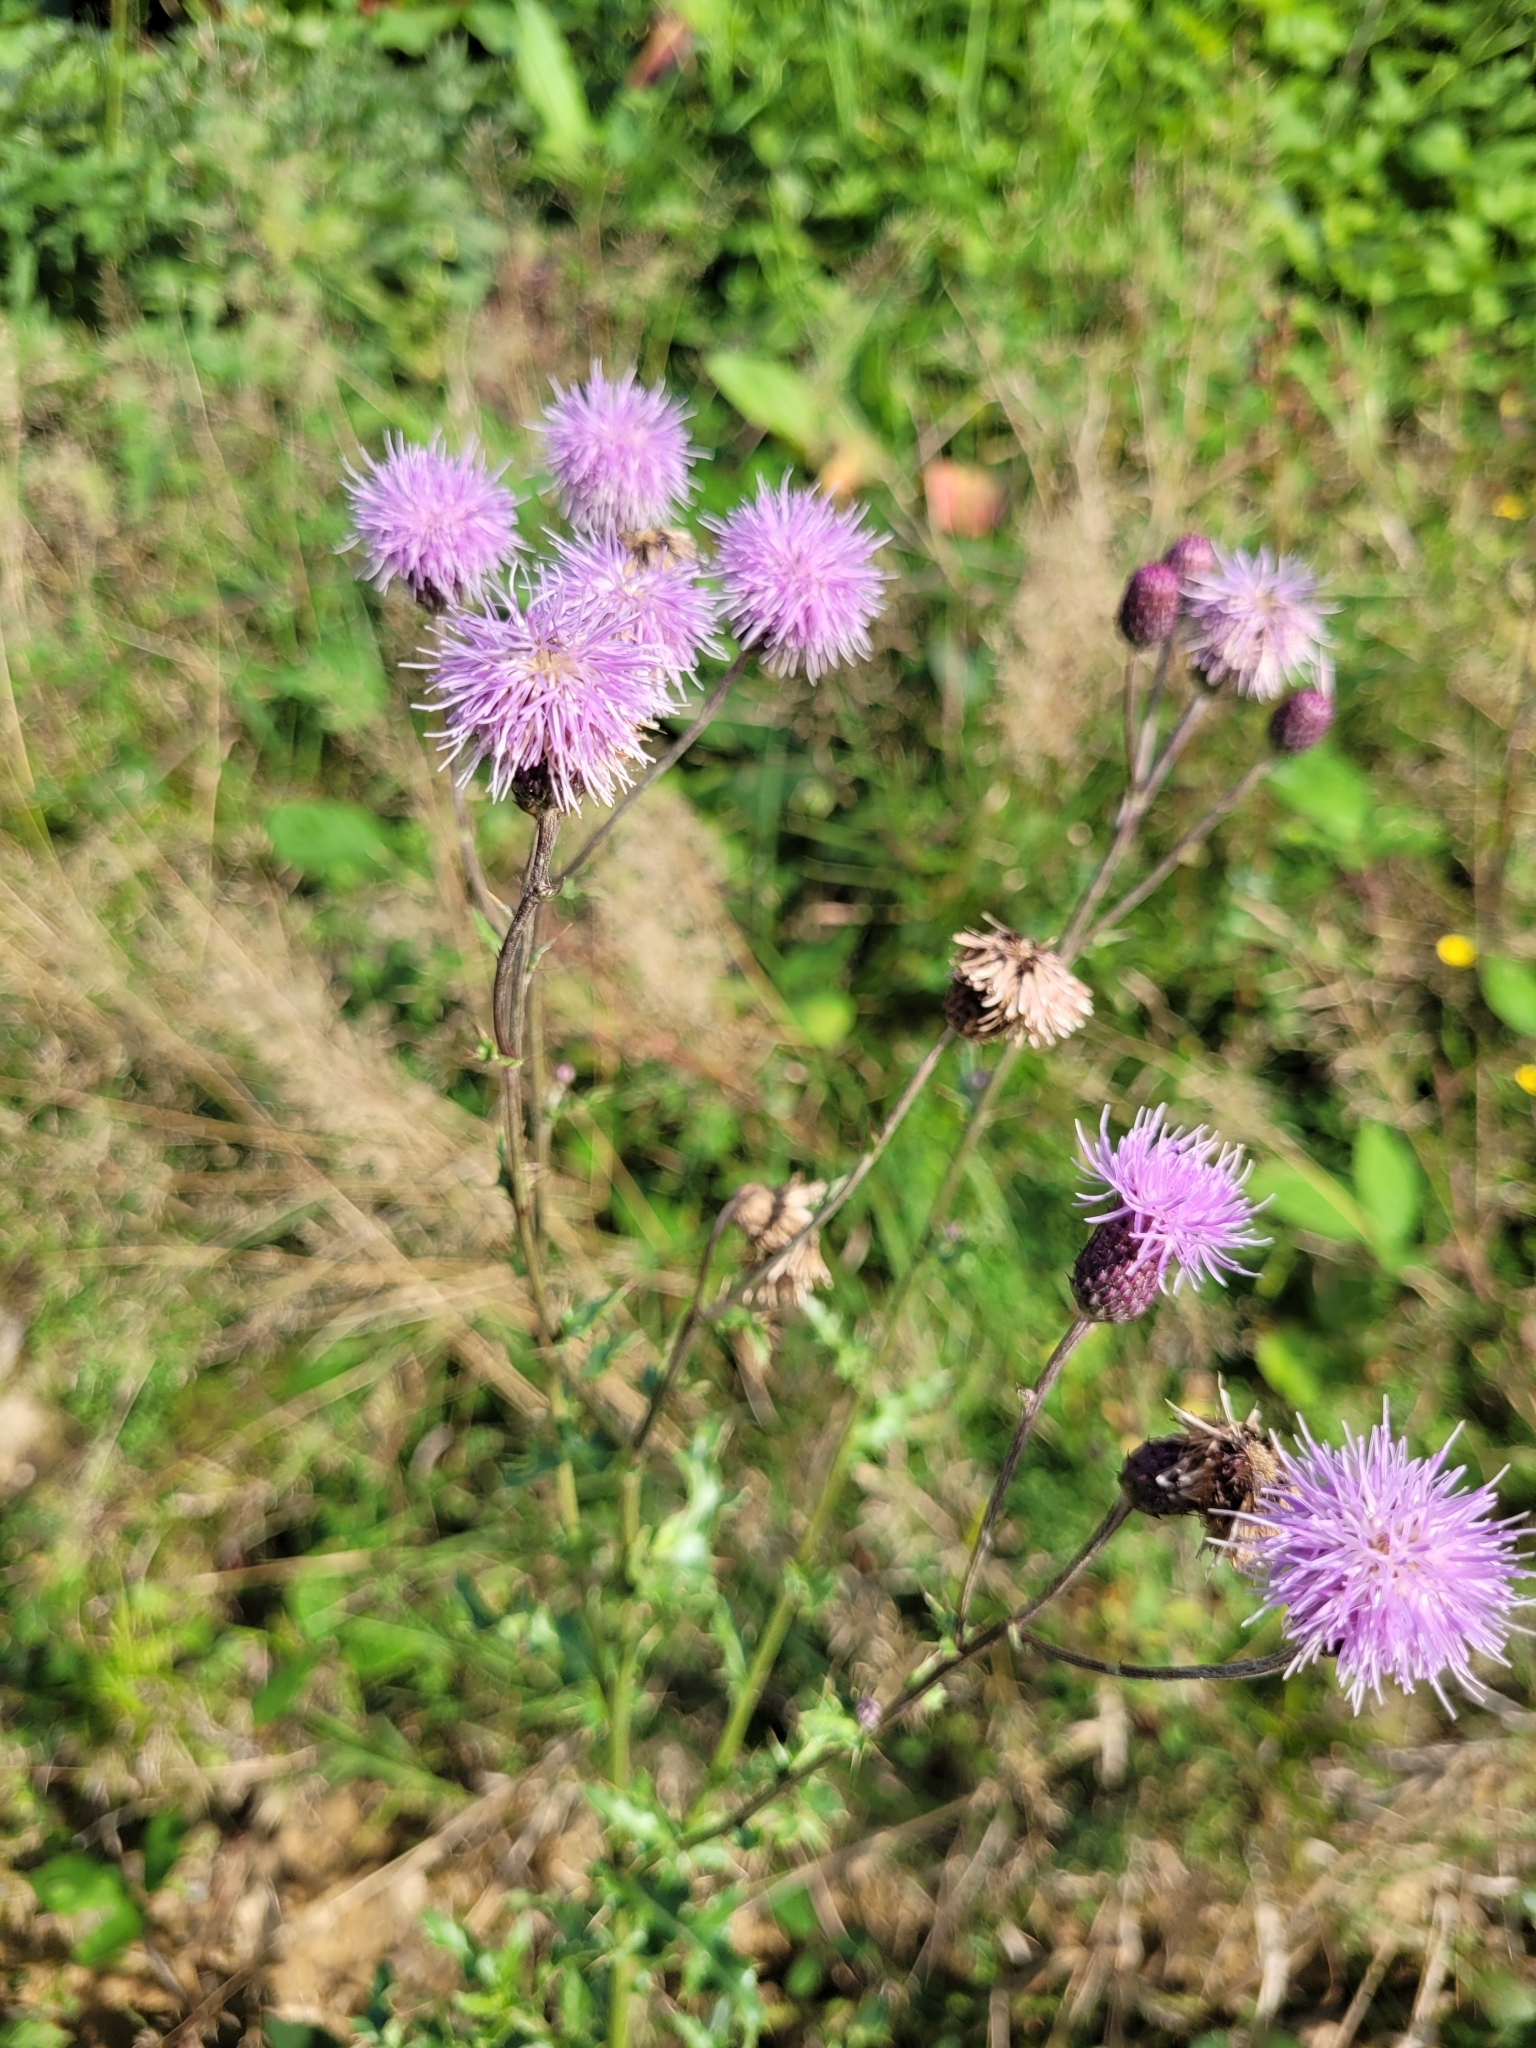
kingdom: Plantae
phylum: Tracheophyta
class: Magnoliopsida
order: Asterales
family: Asteraceae
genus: Cirsium
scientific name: Cirsium arvense
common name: Creeping thistle
